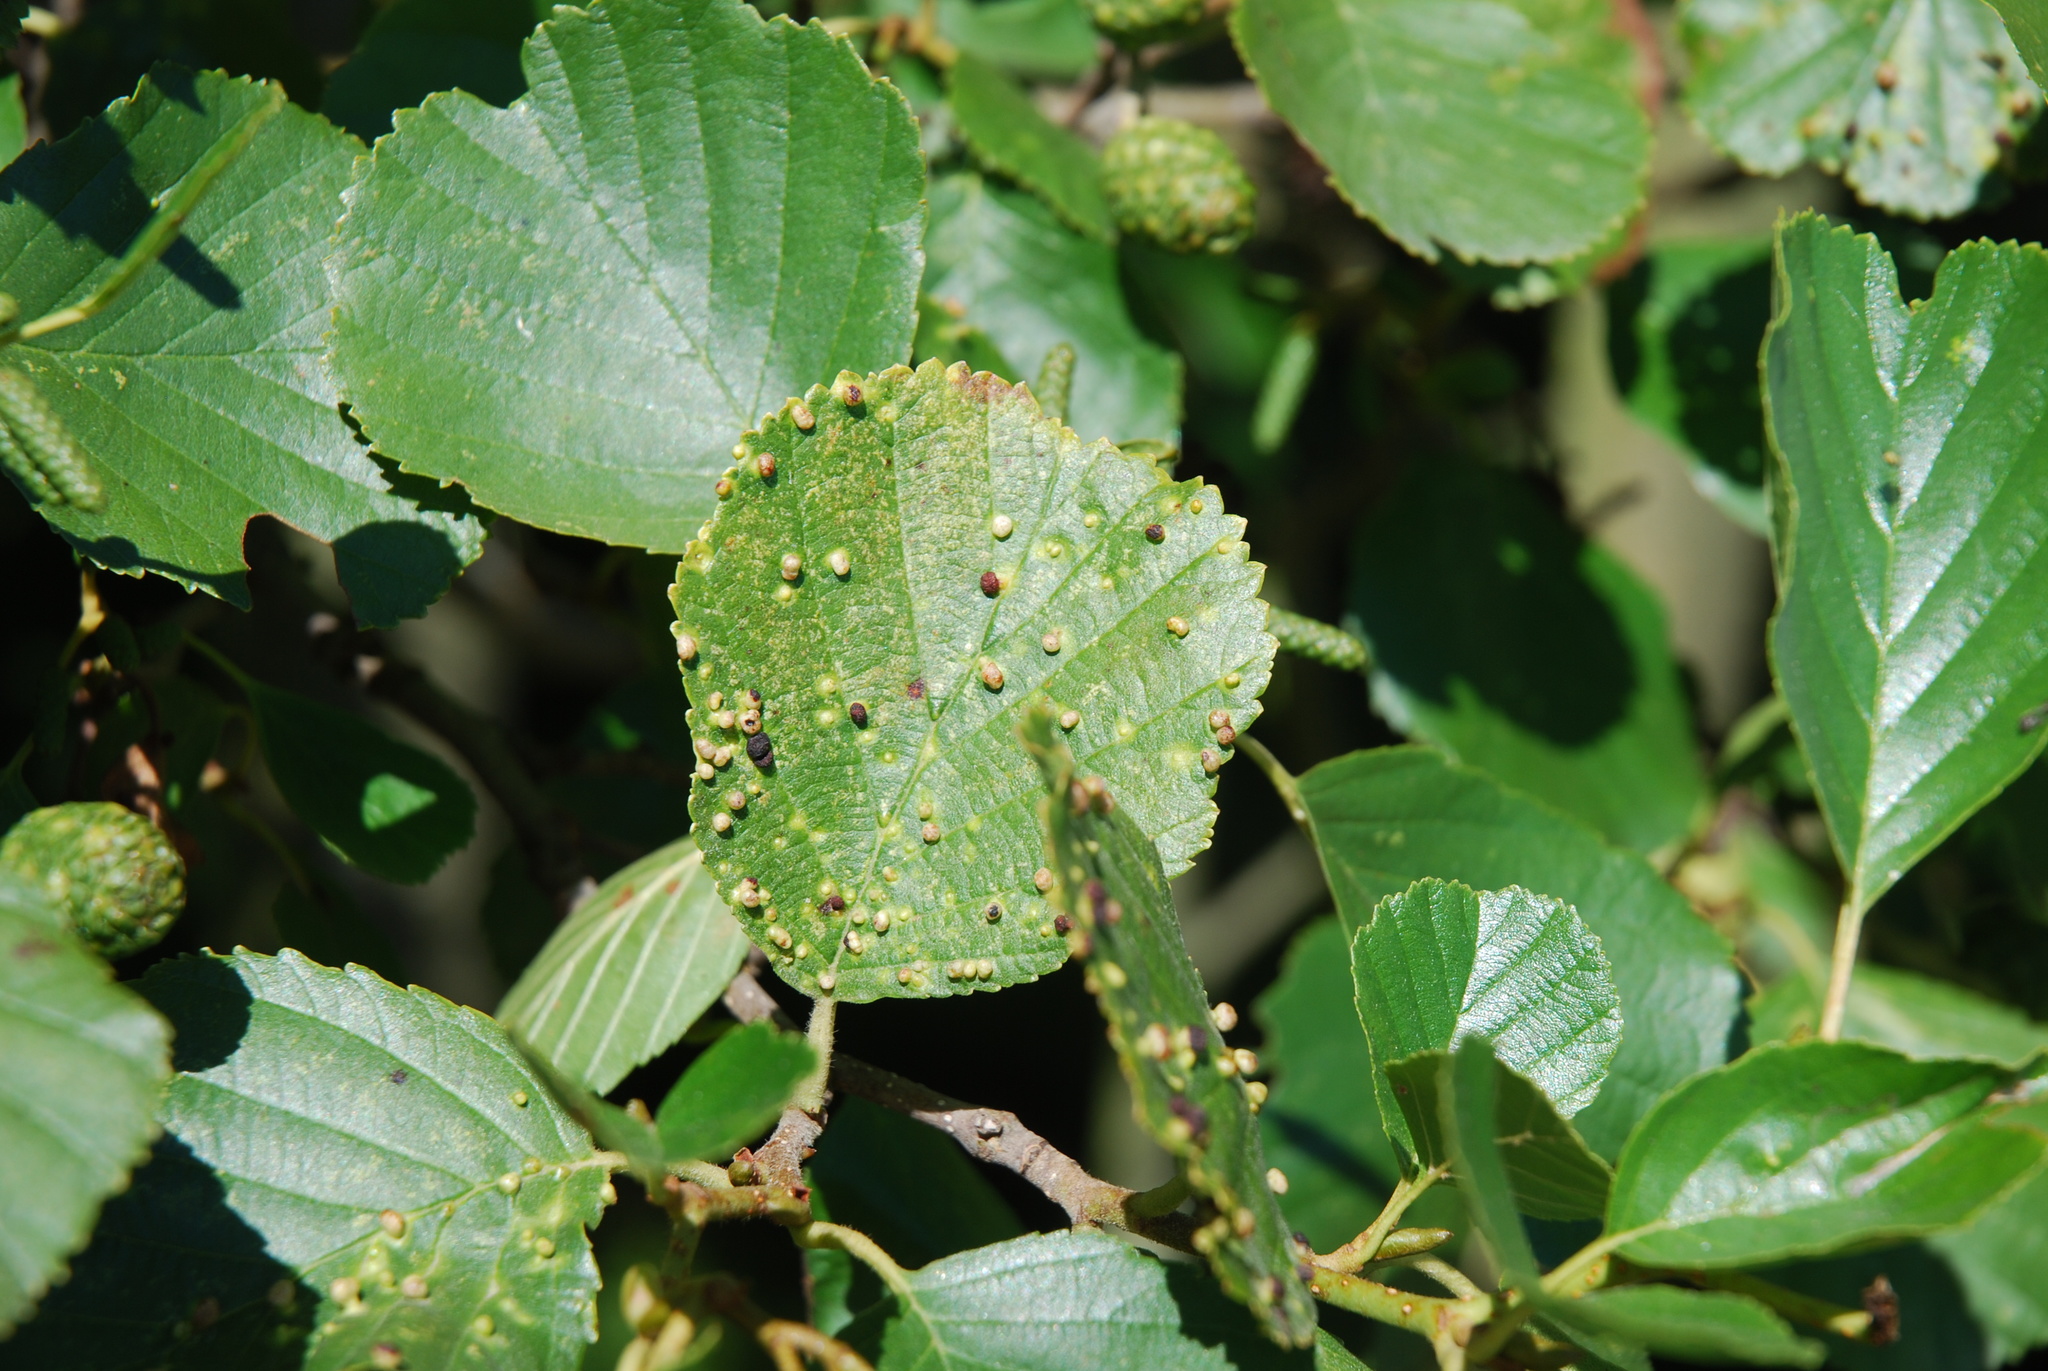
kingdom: Animalia
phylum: Arthropoda
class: Arachnida
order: Trombidiformes
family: Eriophyidae
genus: Eriophyes
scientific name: Eriophyes laevis
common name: Alder leaf gall mite
